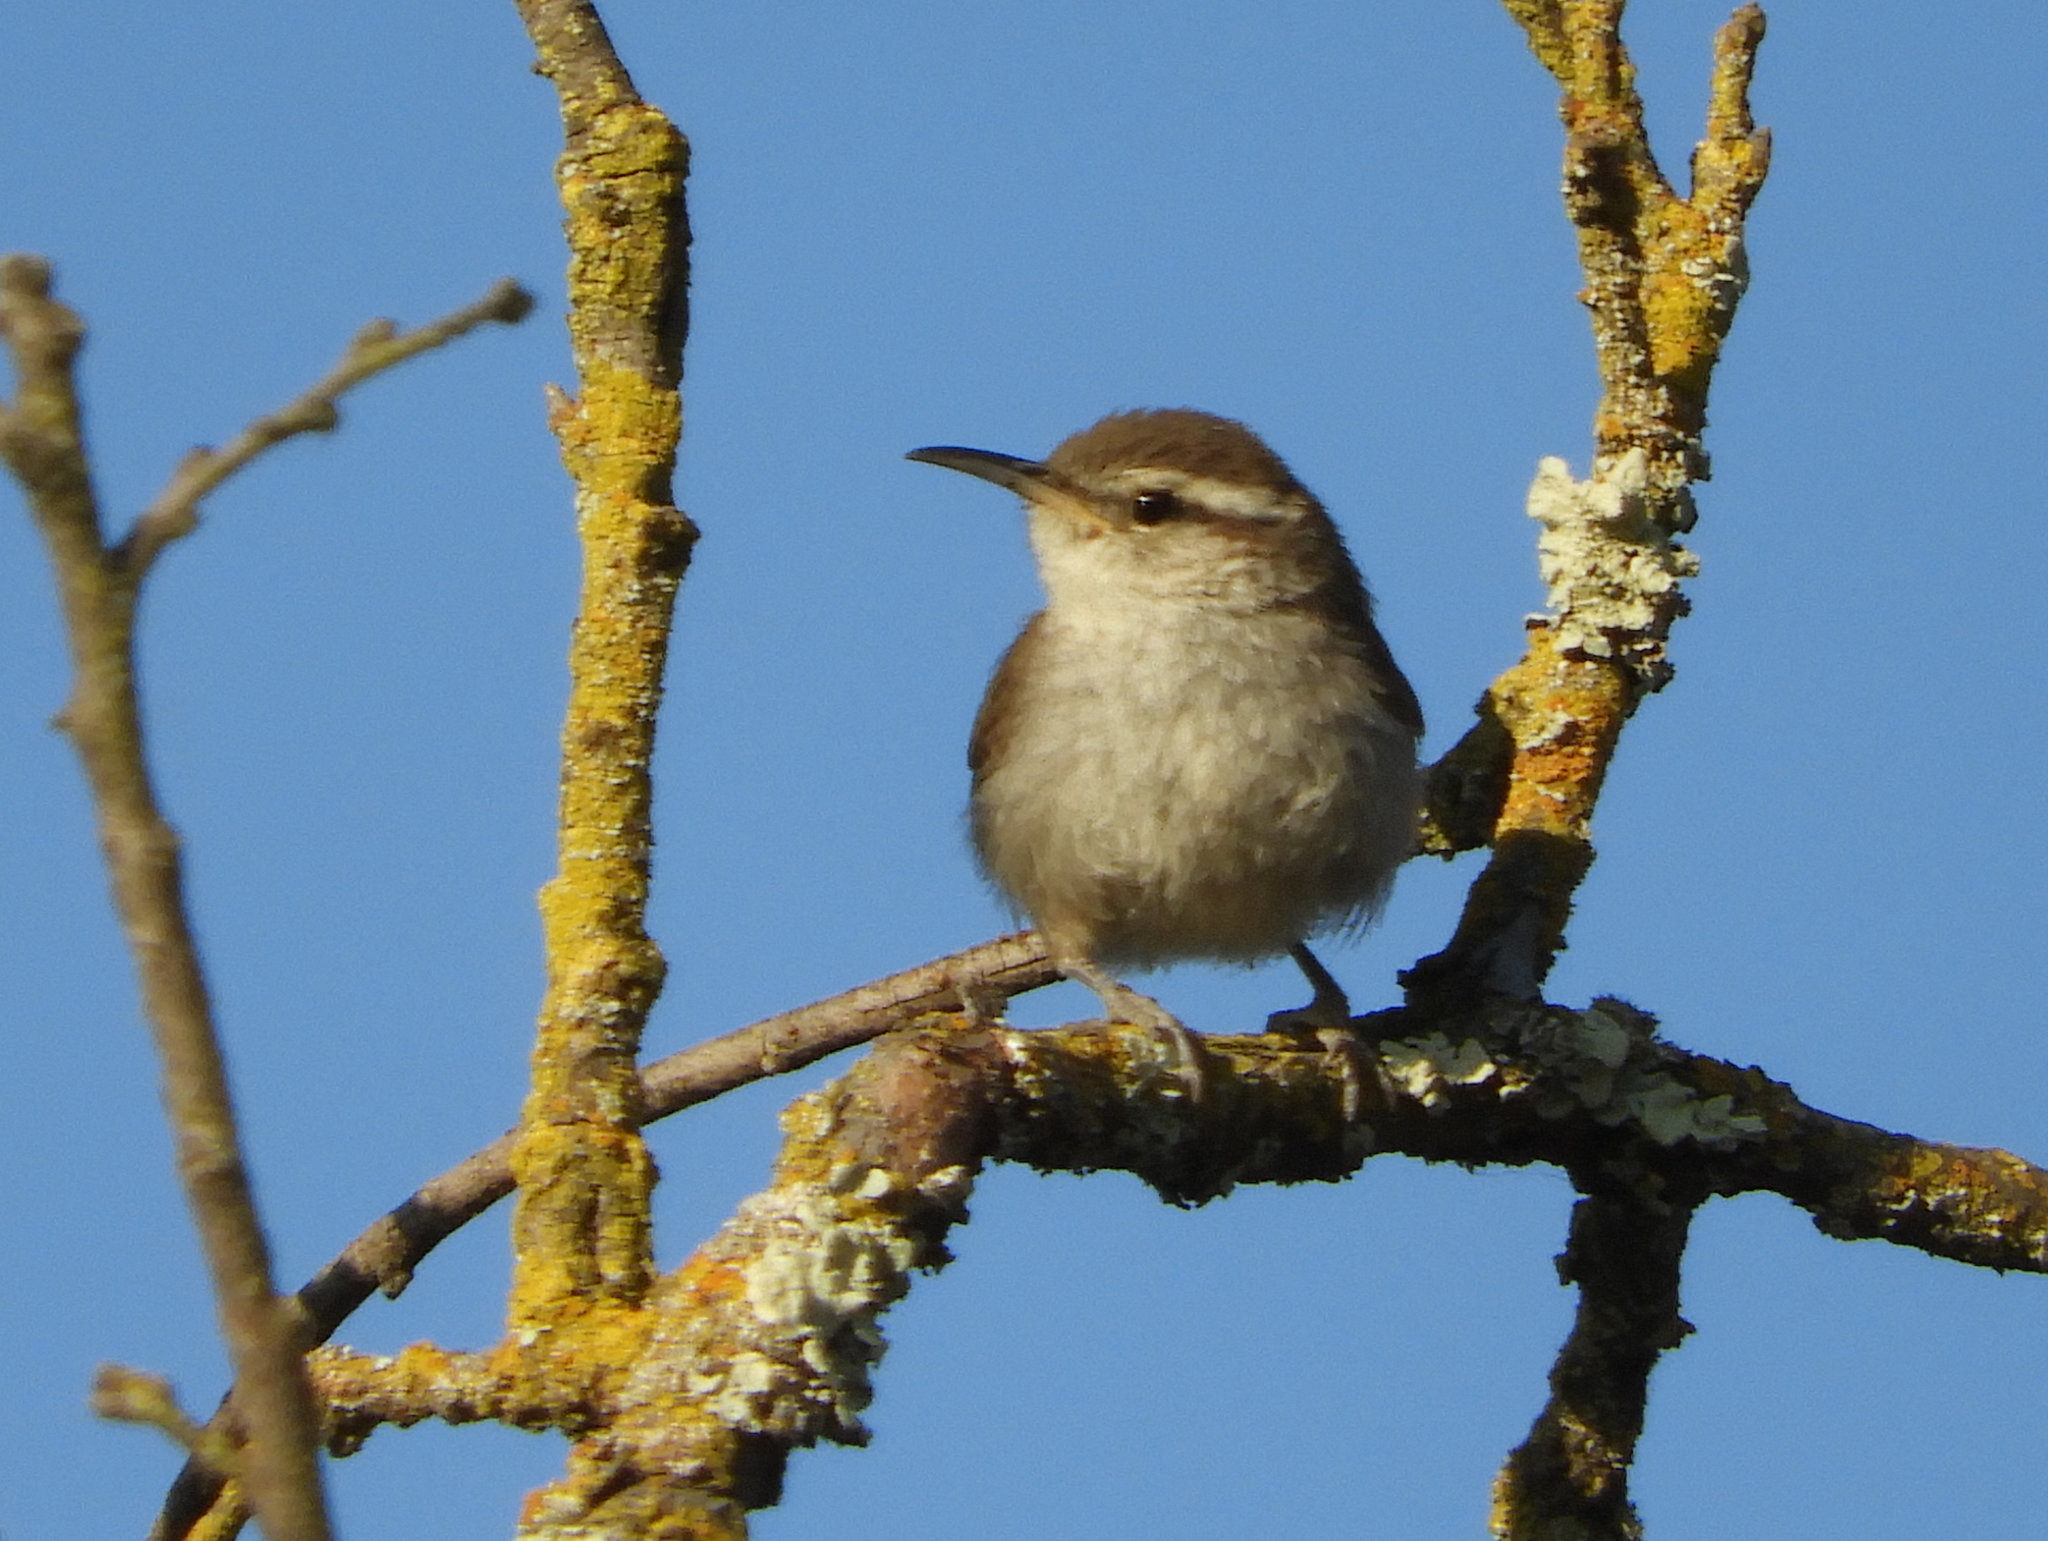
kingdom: Animalia
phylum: Chordata
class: Aves
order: Passeriformes
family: Troglodytidae
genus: Thryomanes
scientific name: Thryomanes bewickii
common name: Bewick's wren
